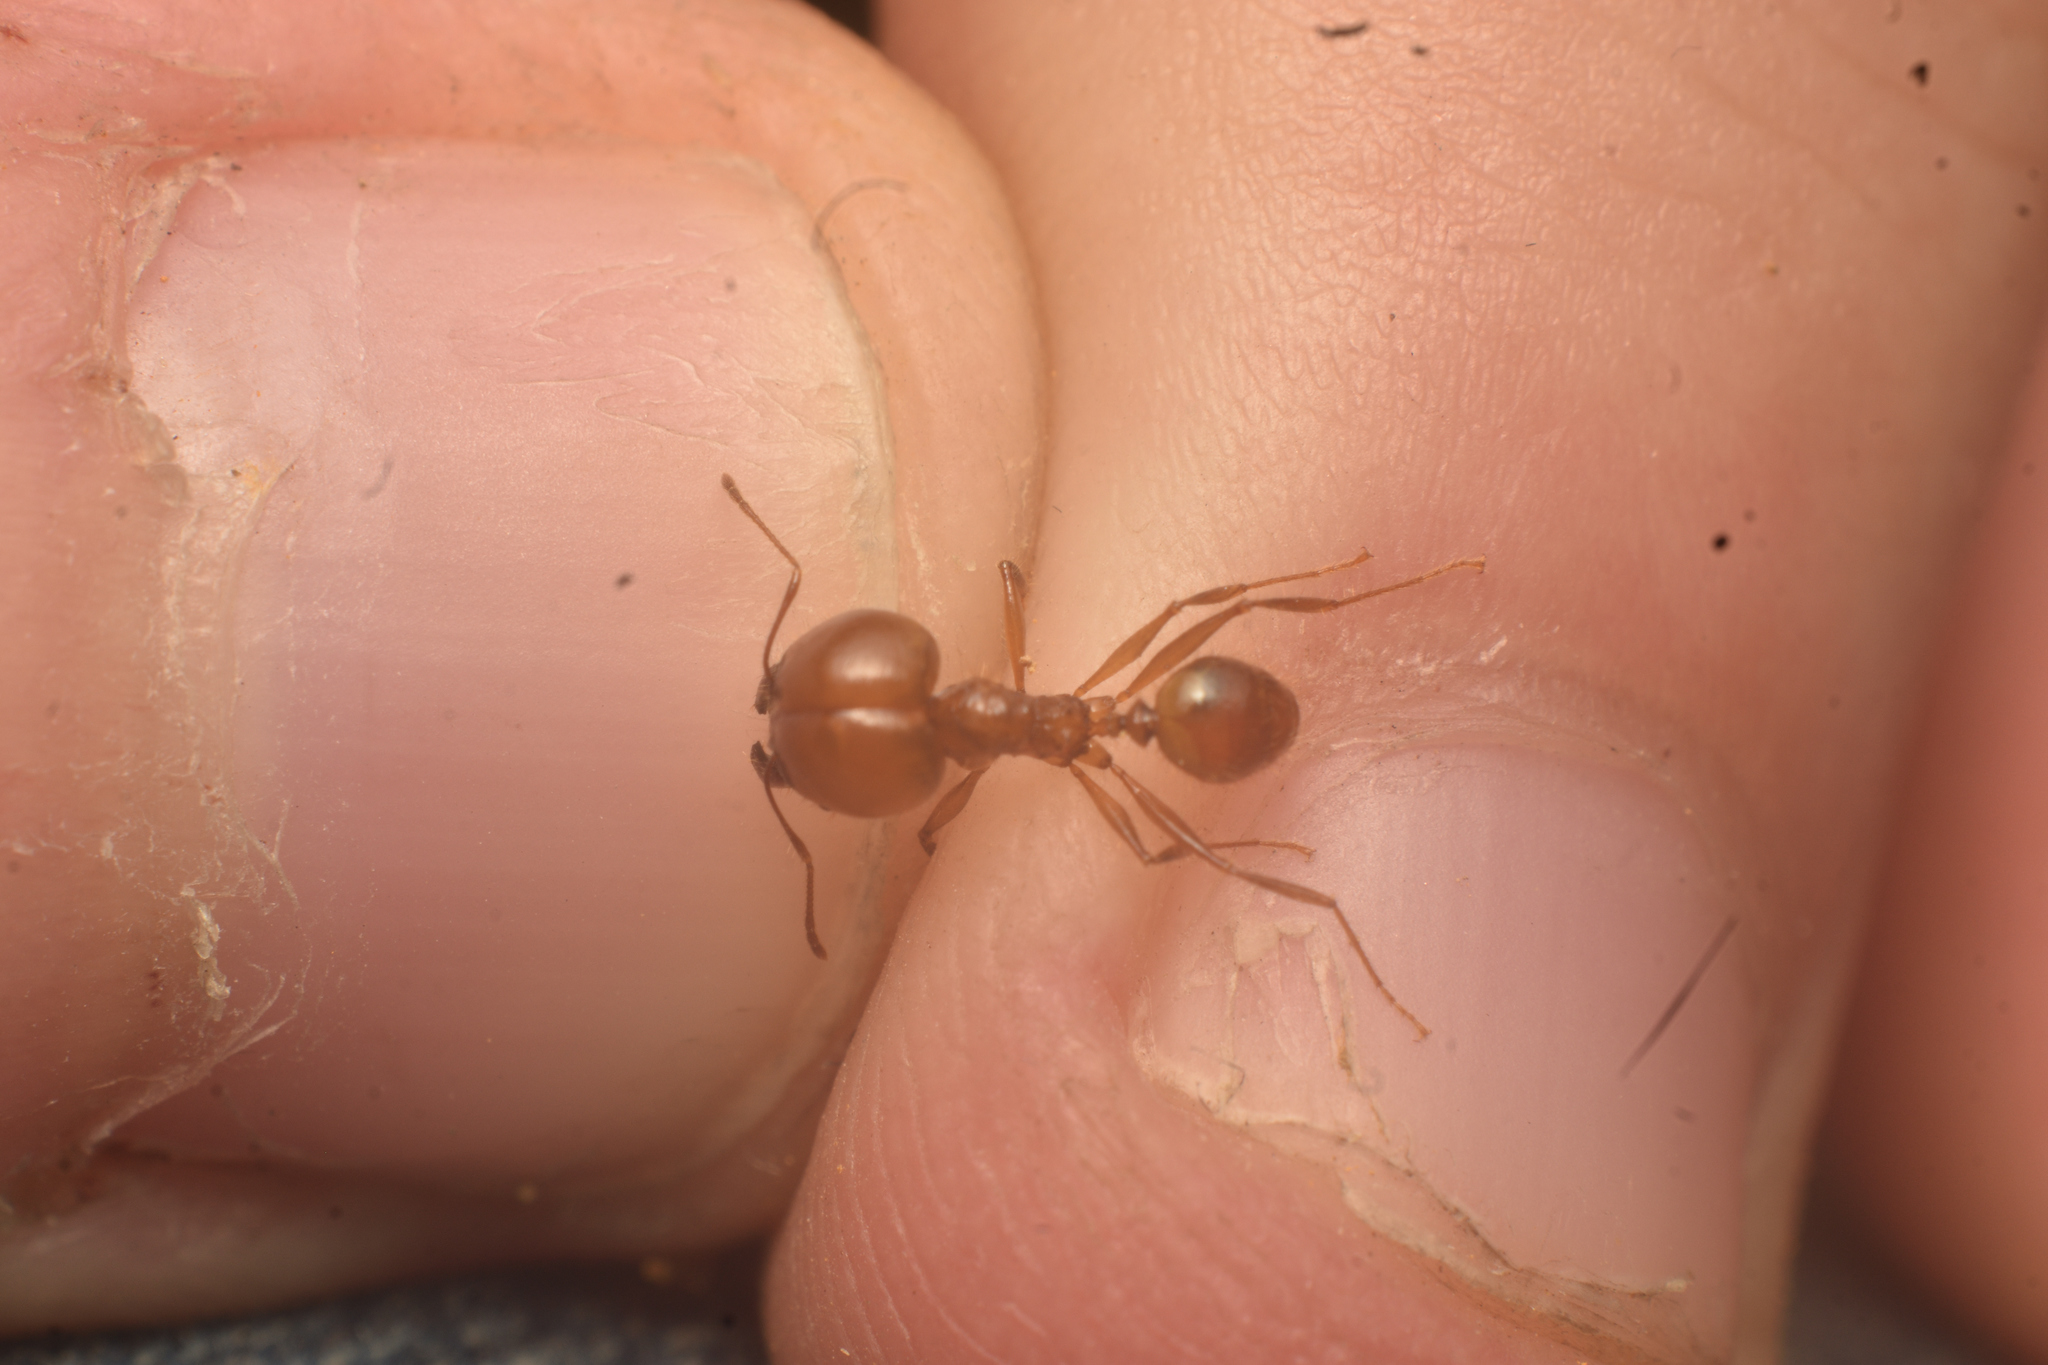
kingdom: Animalia
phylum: Arthropoda
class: Insecta
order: Hymenoptera
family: Formicidae
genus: Pheidole
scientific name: Pheidole pepo
